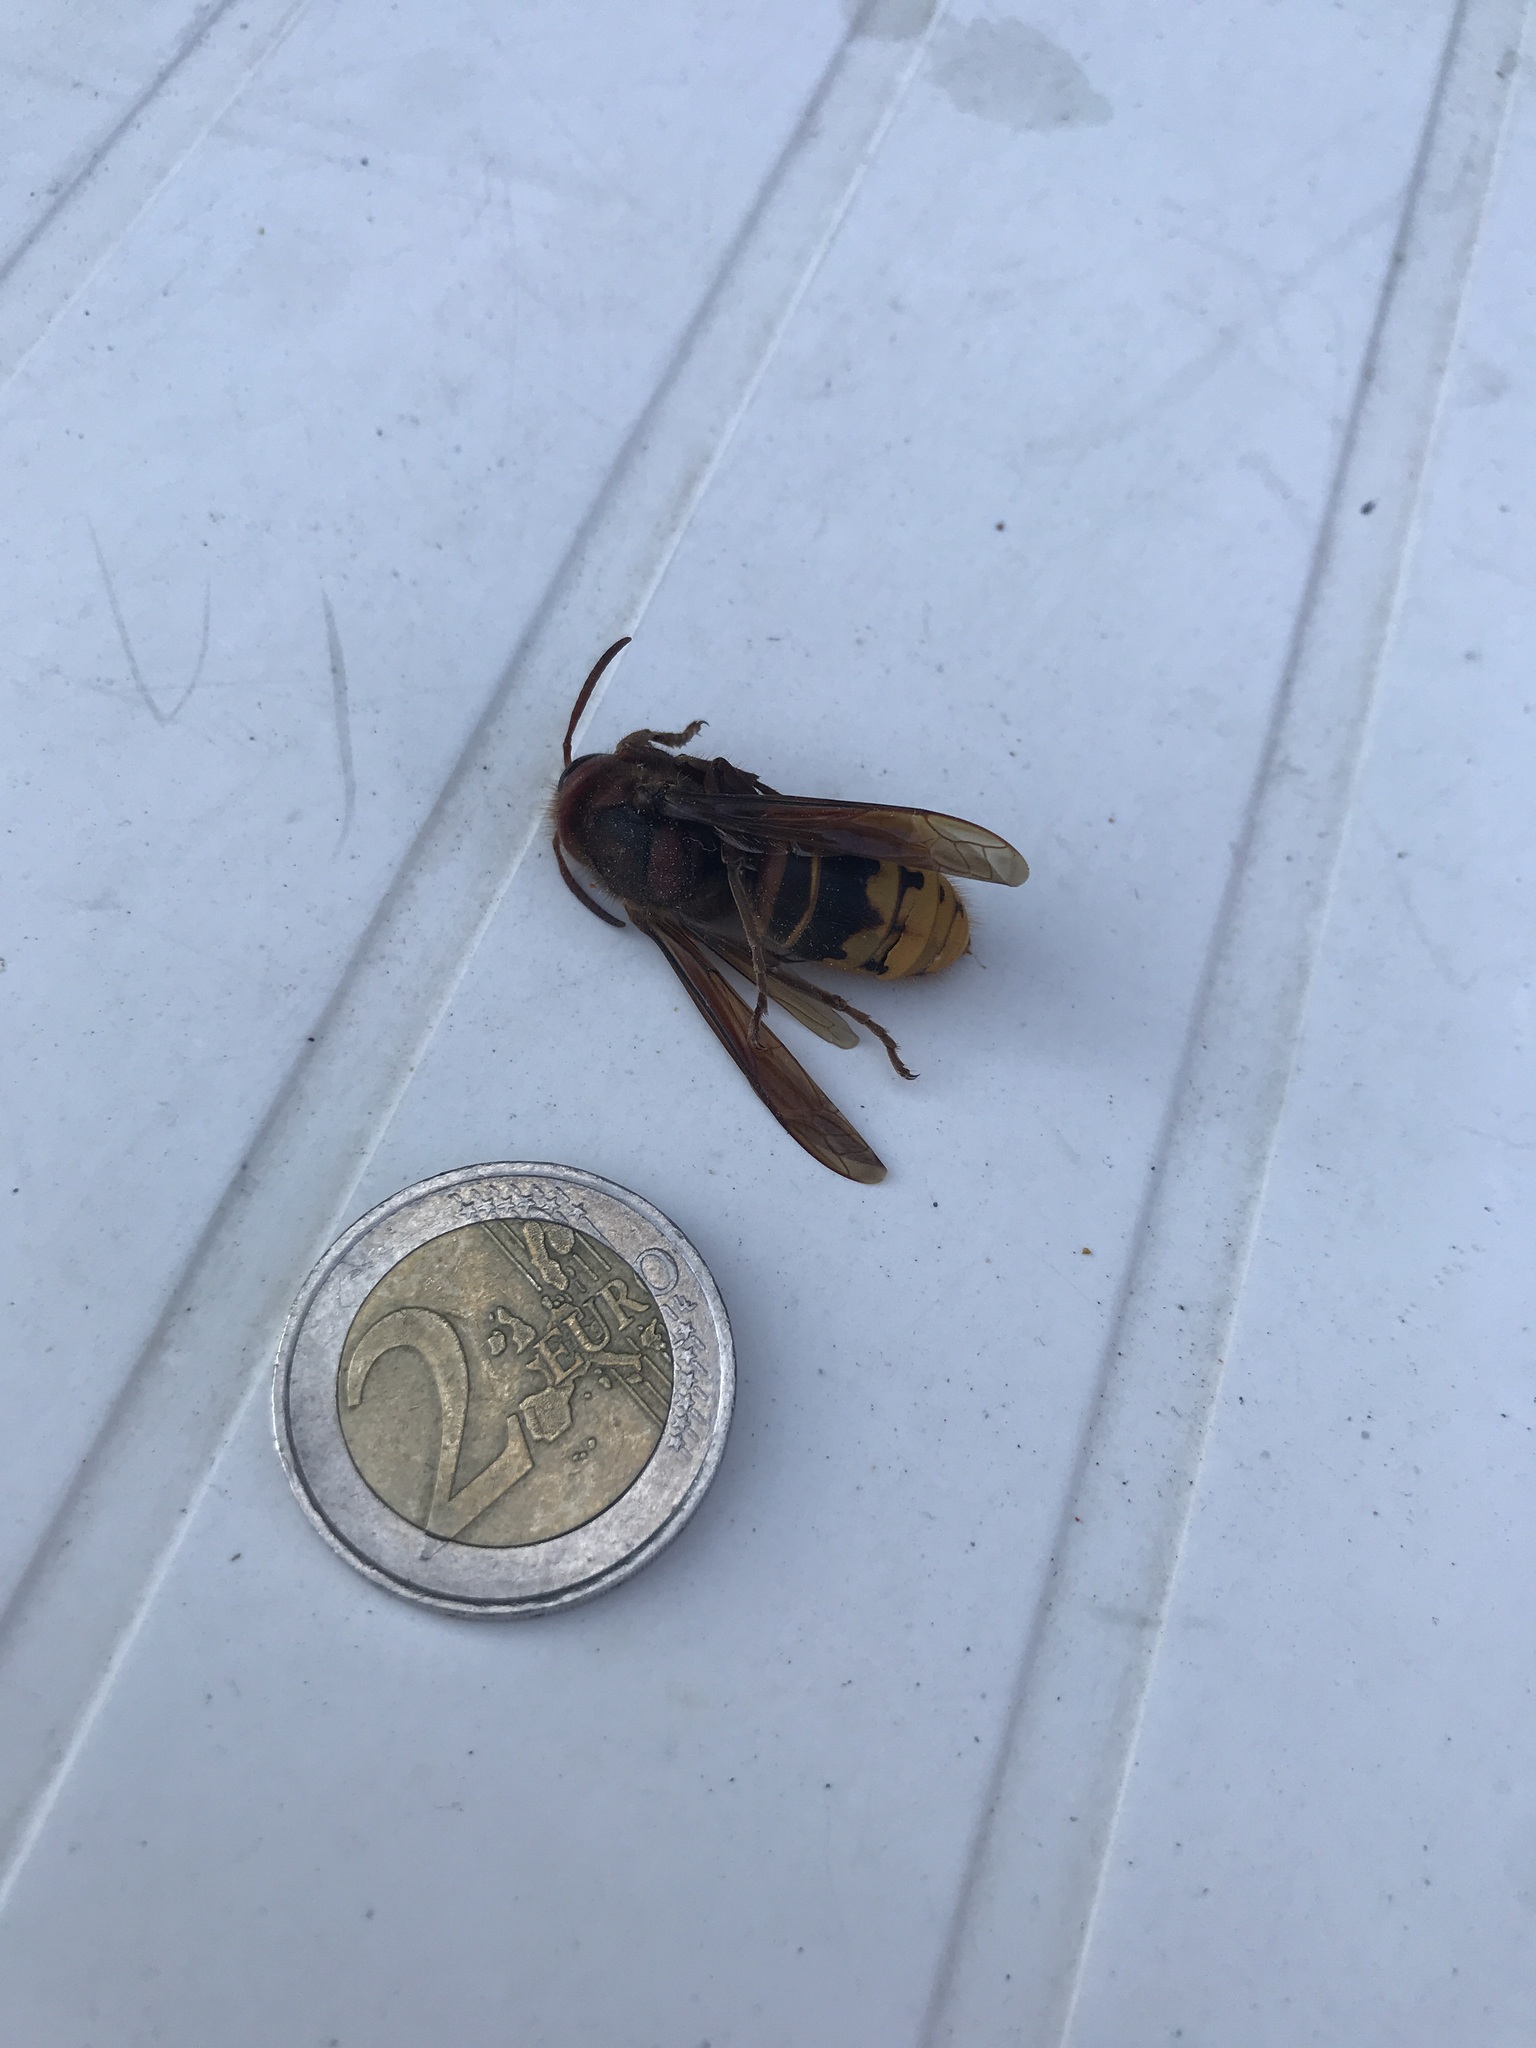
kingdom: Animalia
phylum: Arthropoda
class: Insecta
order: Hymenoptera
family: Vespidae
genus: Vespa
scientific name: Vespa crabro
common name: Hornet
